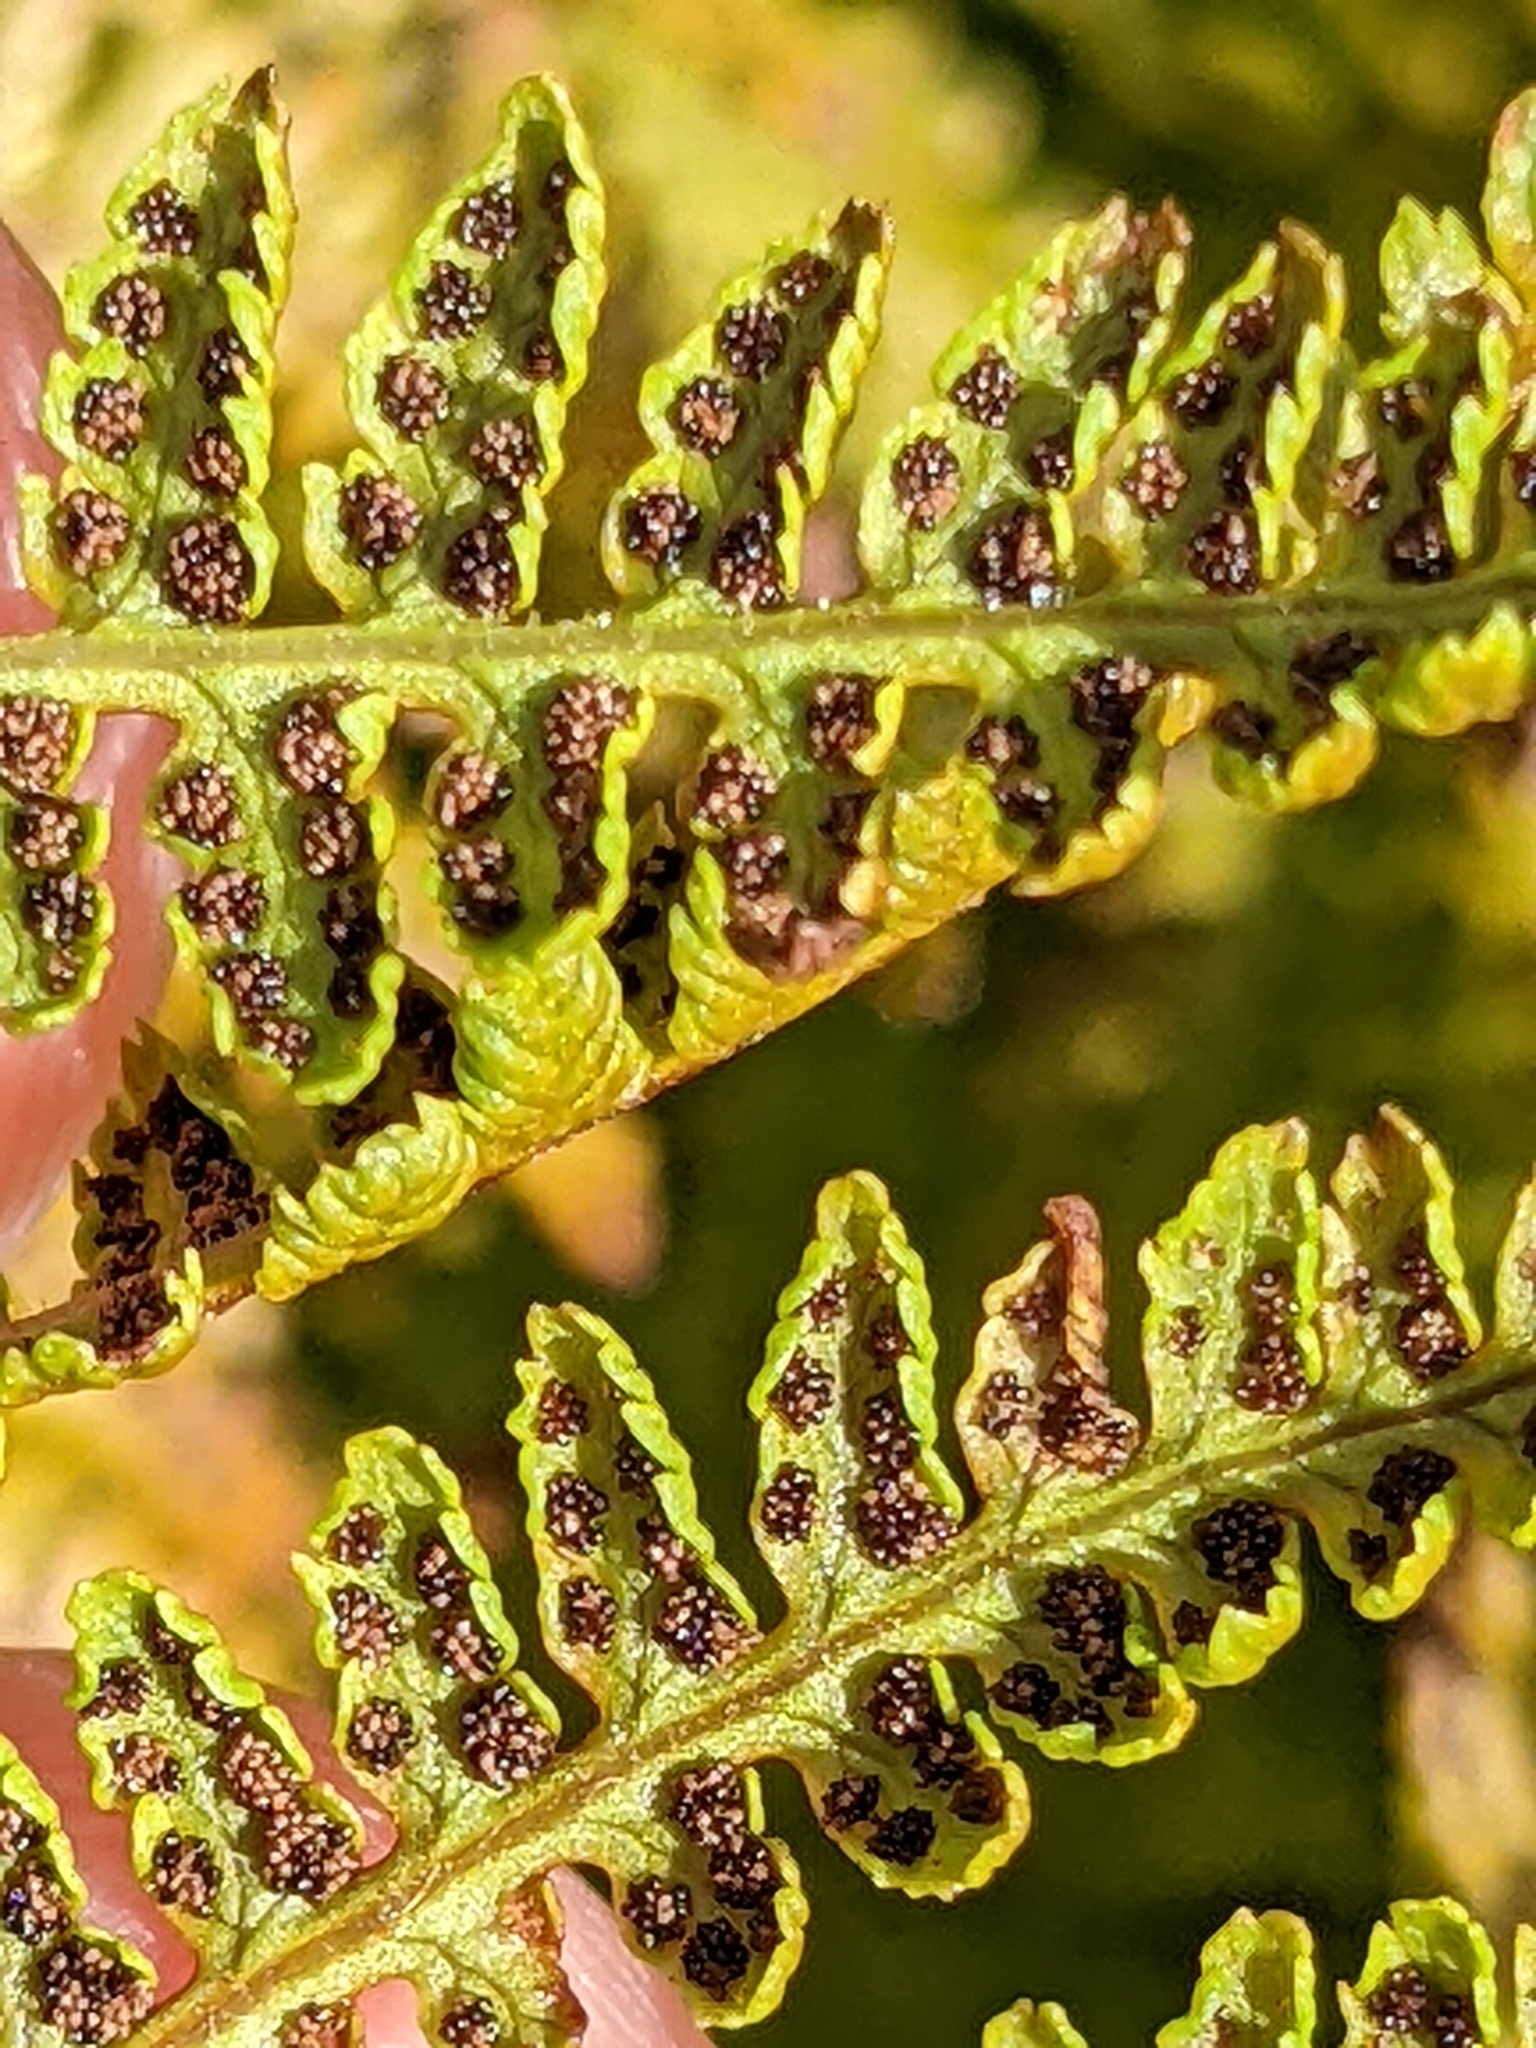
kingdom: Plantae
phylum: Tracheophyta
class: Polypodiopsida
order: Polypodiales
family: Athyriaceae
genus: Pseudathyrium
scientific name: Pseudathyrium alpestre
